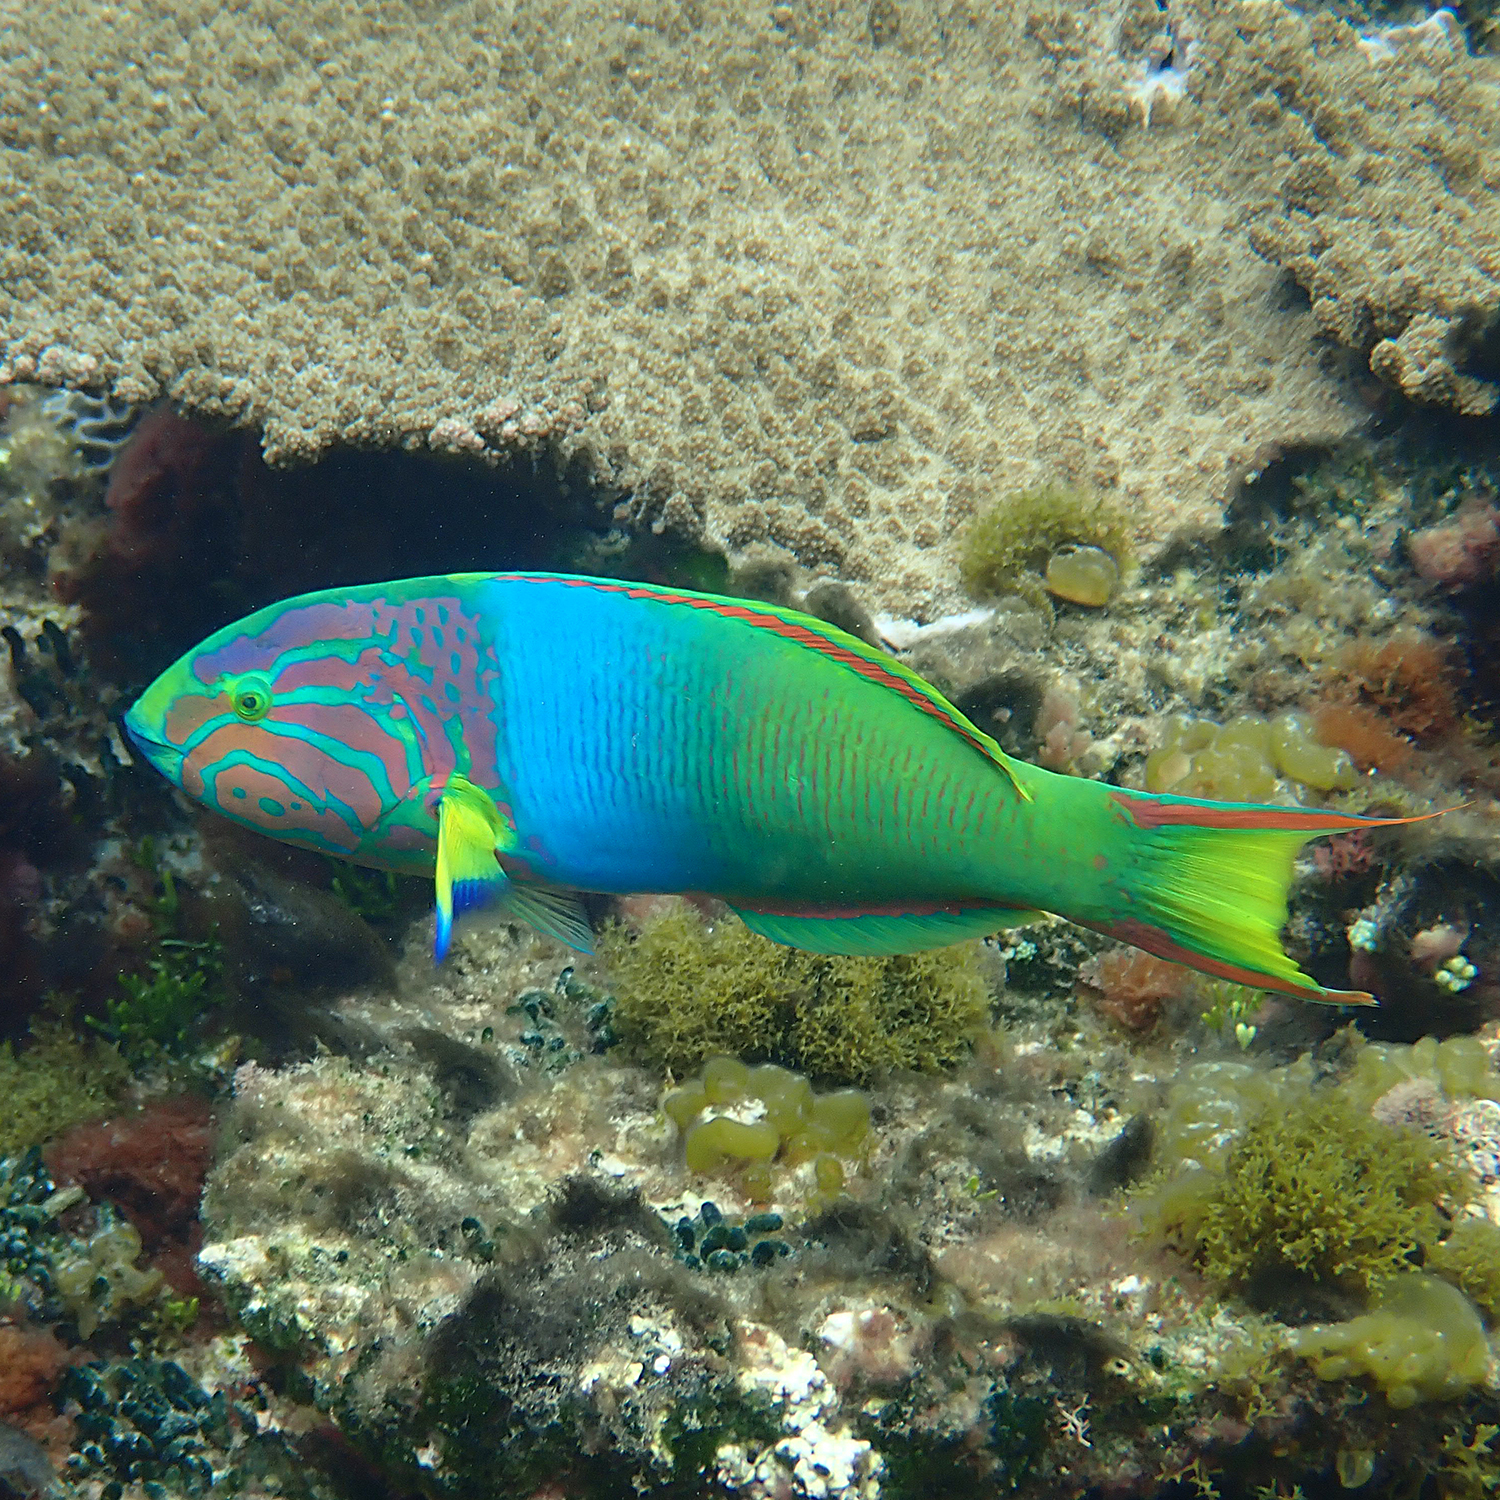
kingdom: Animalia
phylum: Chordata
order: Perciformes
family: Labridae
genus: Thalassoma
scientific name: Thalassoma lutescens
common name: Green moon wrasse
